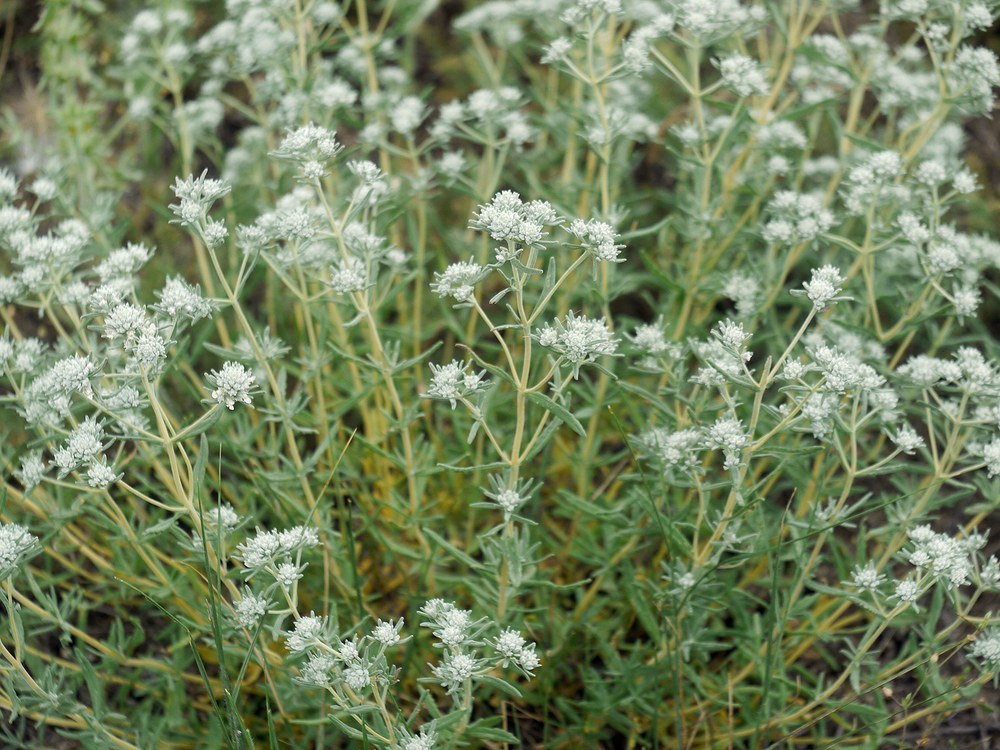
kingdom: Plantae
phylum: Tracheophyta
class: Magnoliopsida
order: Lamiales
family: Lamiaceae
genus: Teucrium
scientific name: Teucrium polium
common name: Poley
